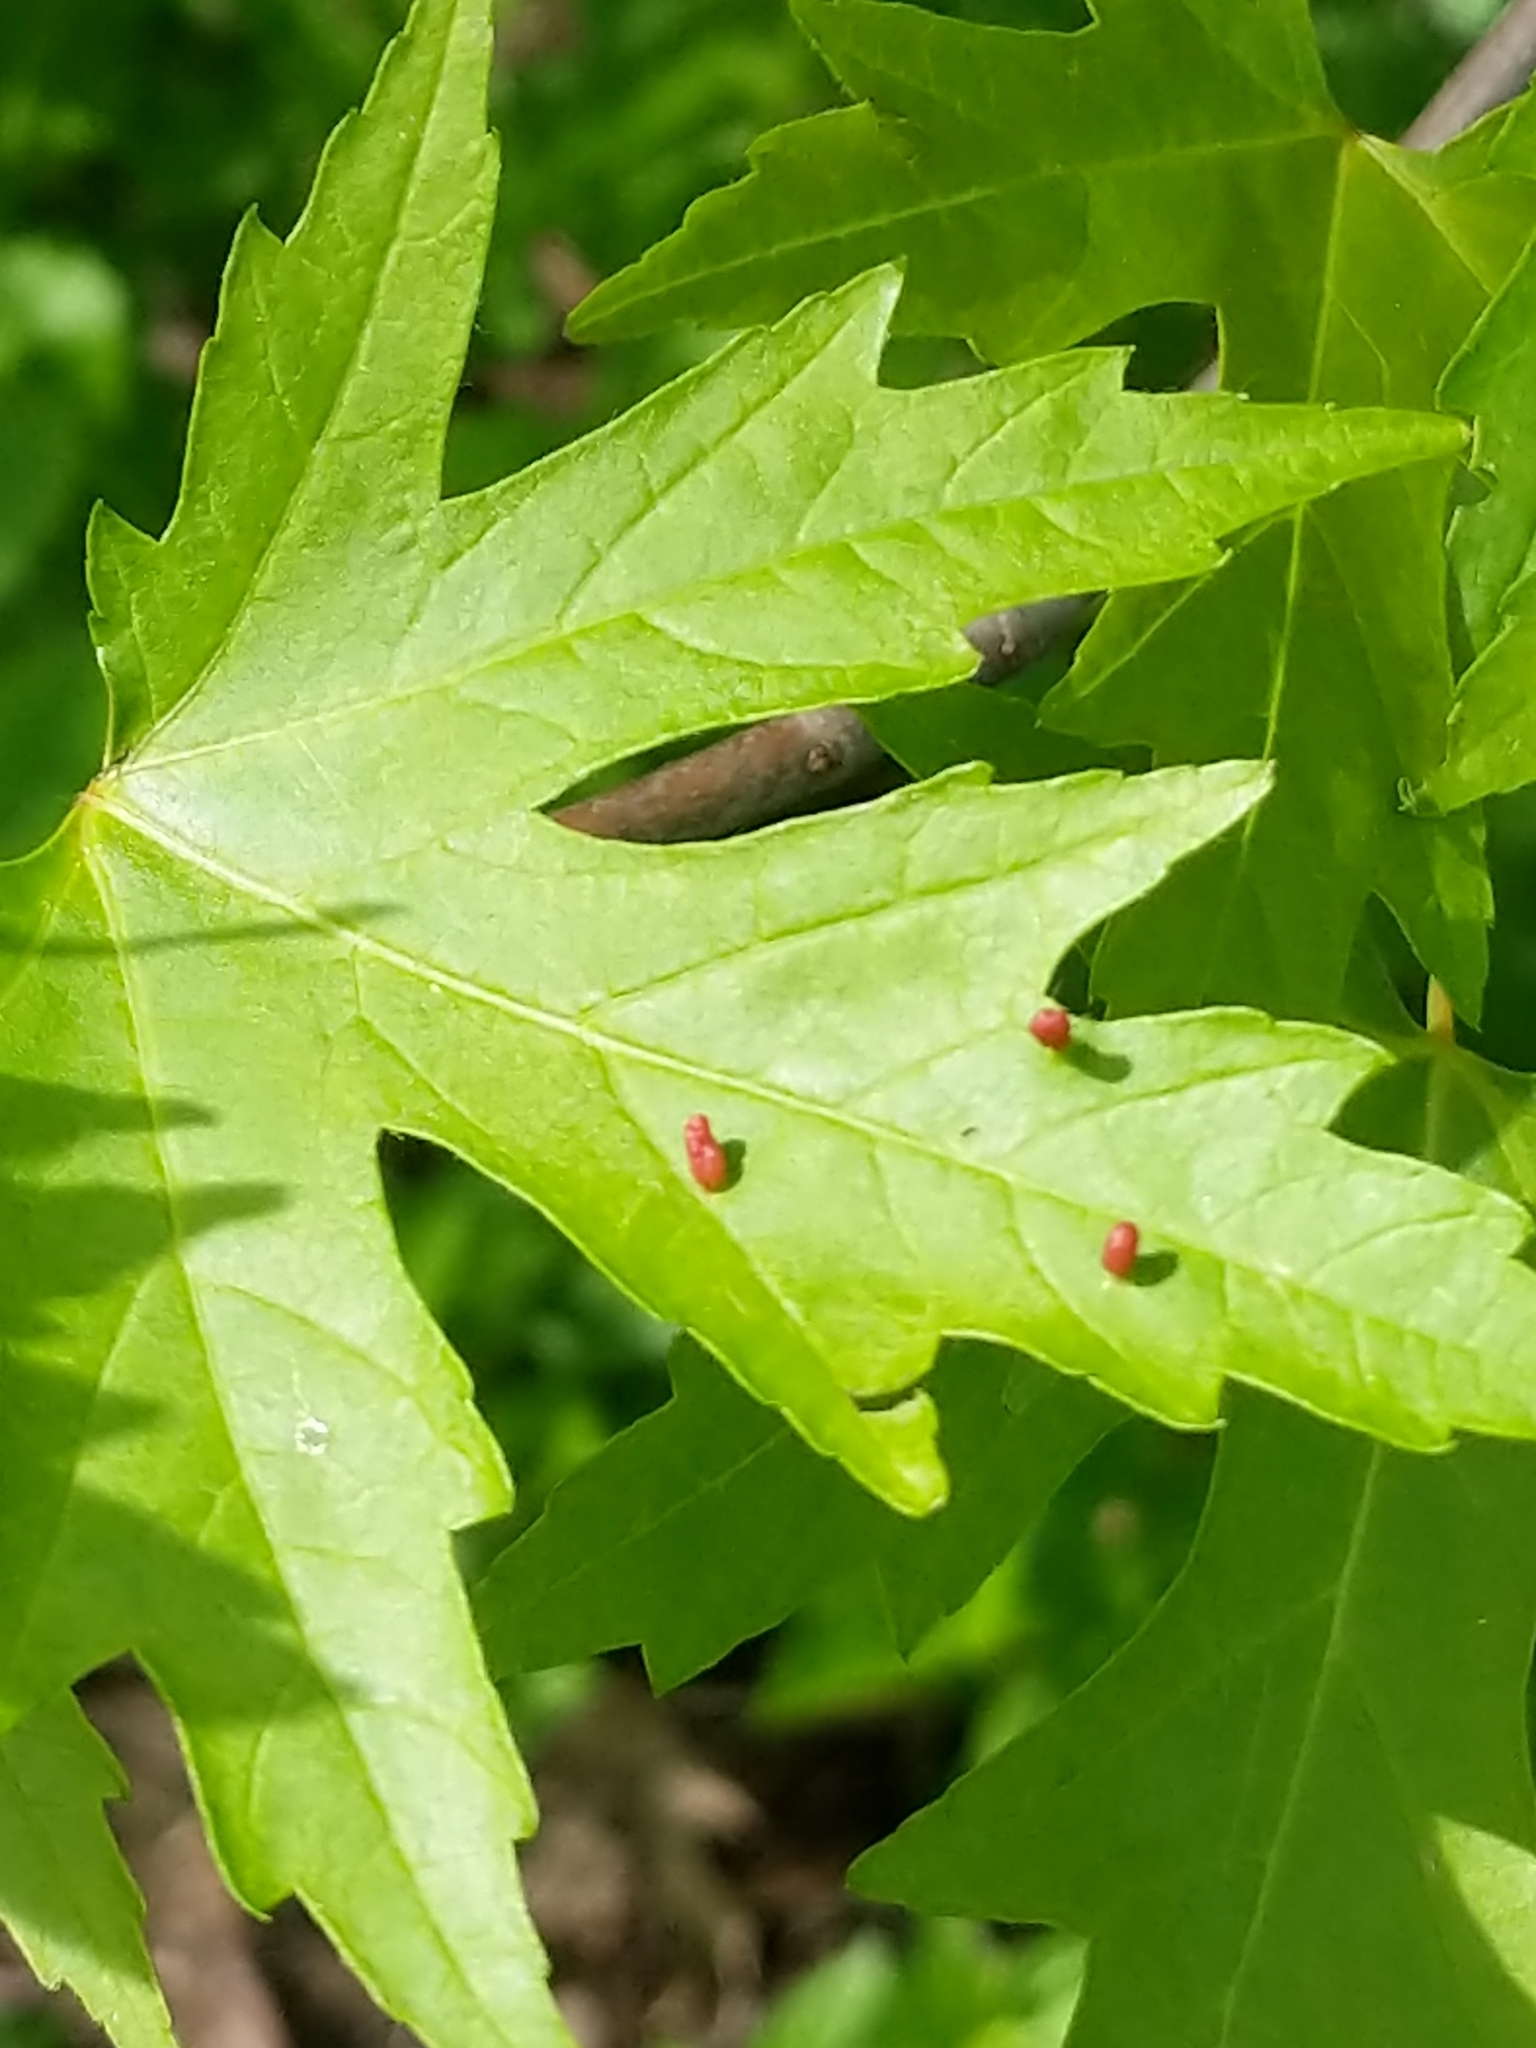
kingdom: Animalia
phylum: Arthropoda
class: Arachnida
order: Trombidiformes
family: Eriophyidae
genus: Vasates
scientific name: Vasates quadripedes
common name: Maple bladder gall mite
